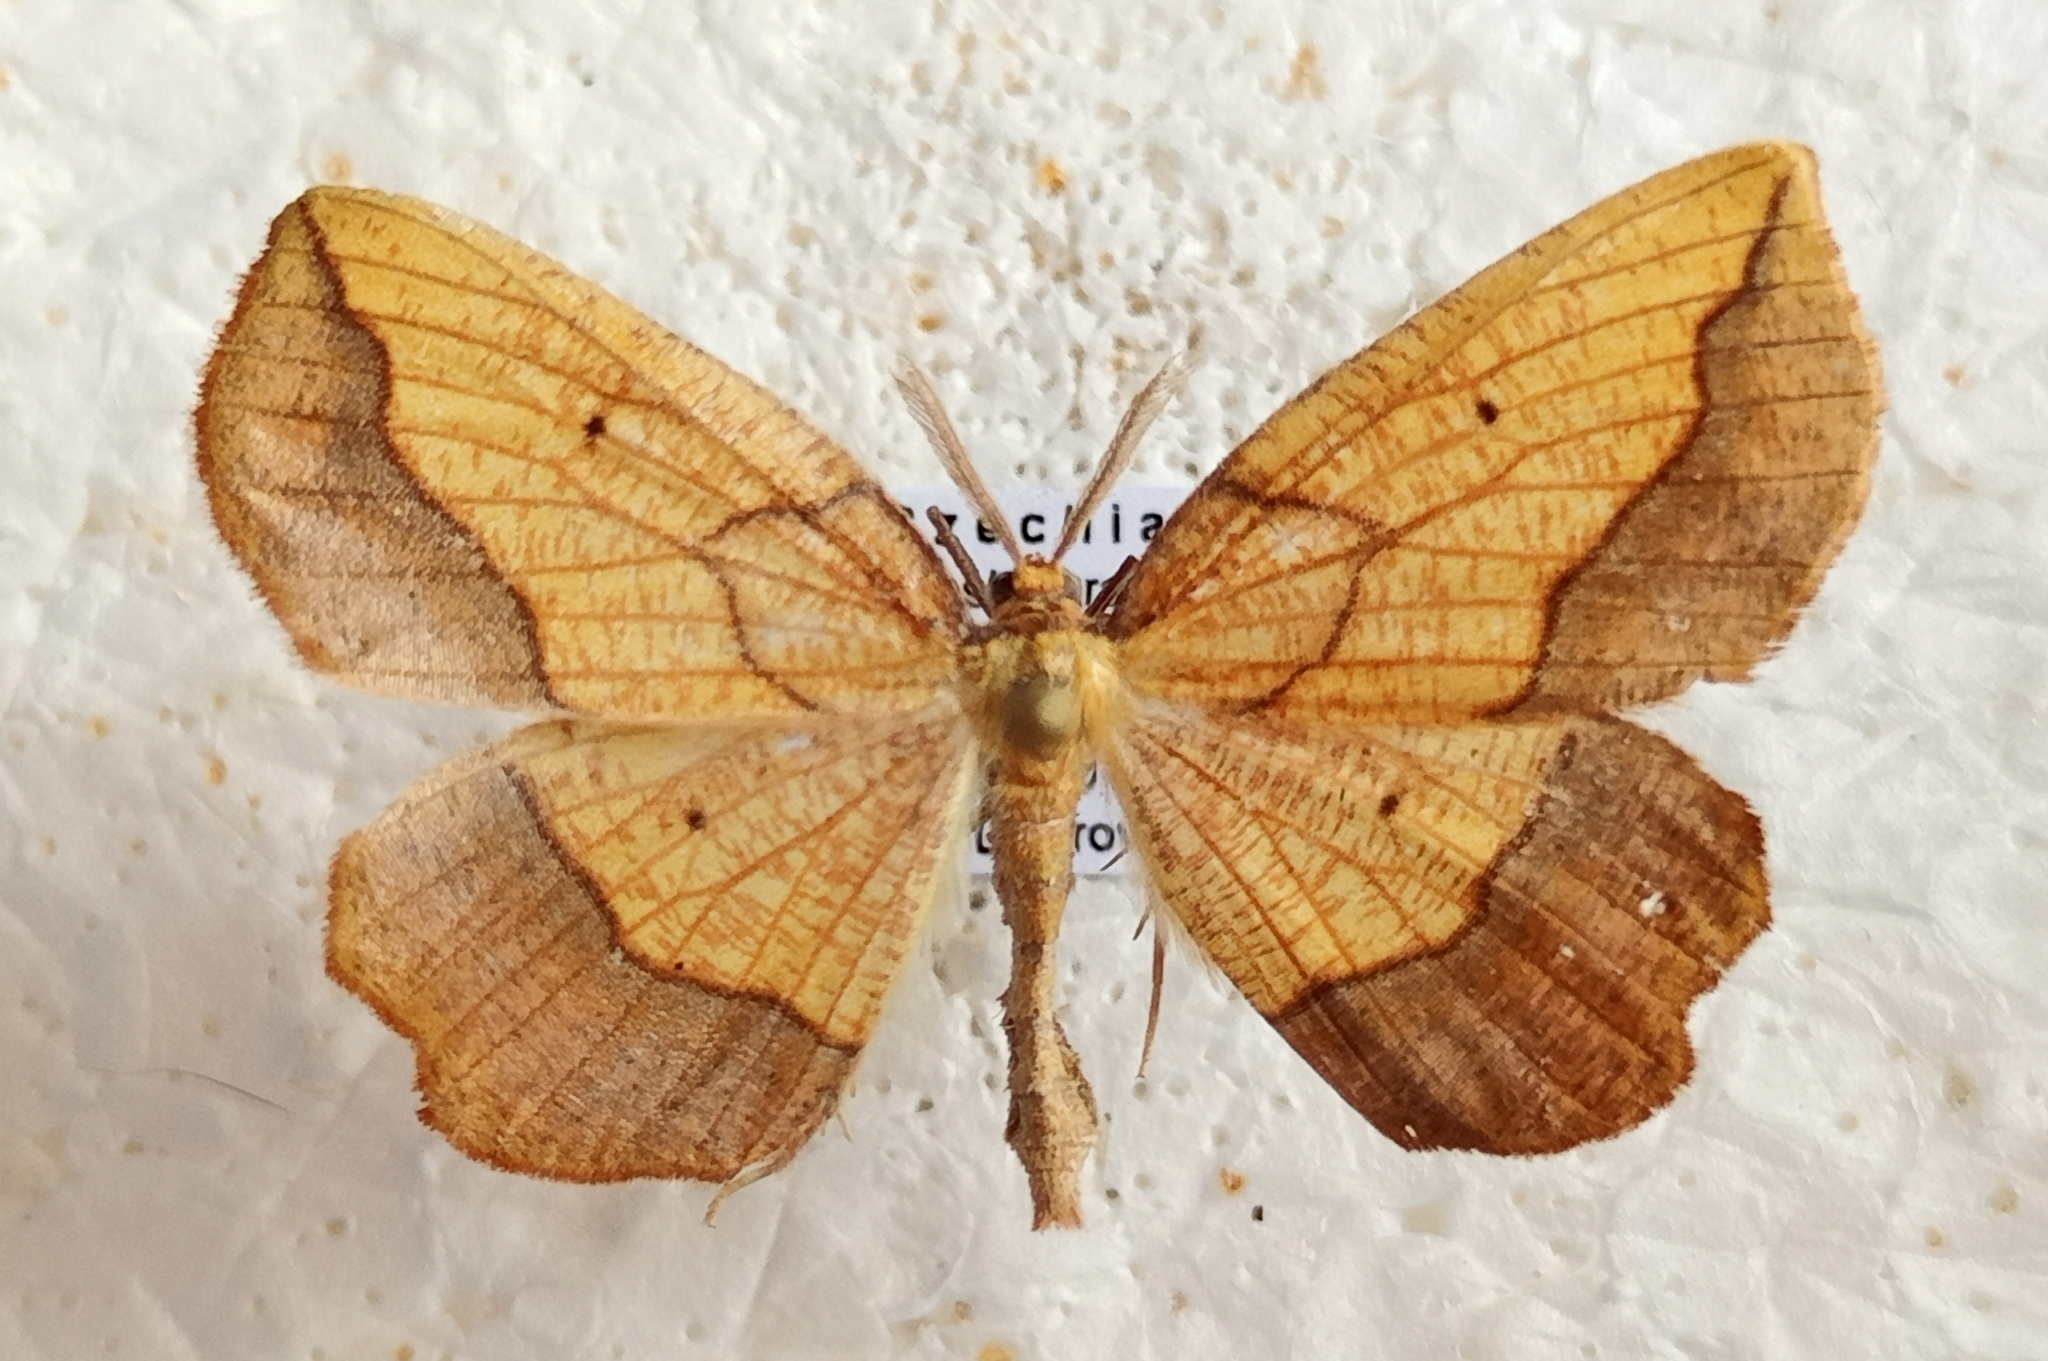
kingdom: Animalia
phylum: Arthropoda
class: Insecta
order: Lepidoptera
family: Geometridae
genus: Epione
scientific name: Epione repandaria
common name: Bordered beauty
